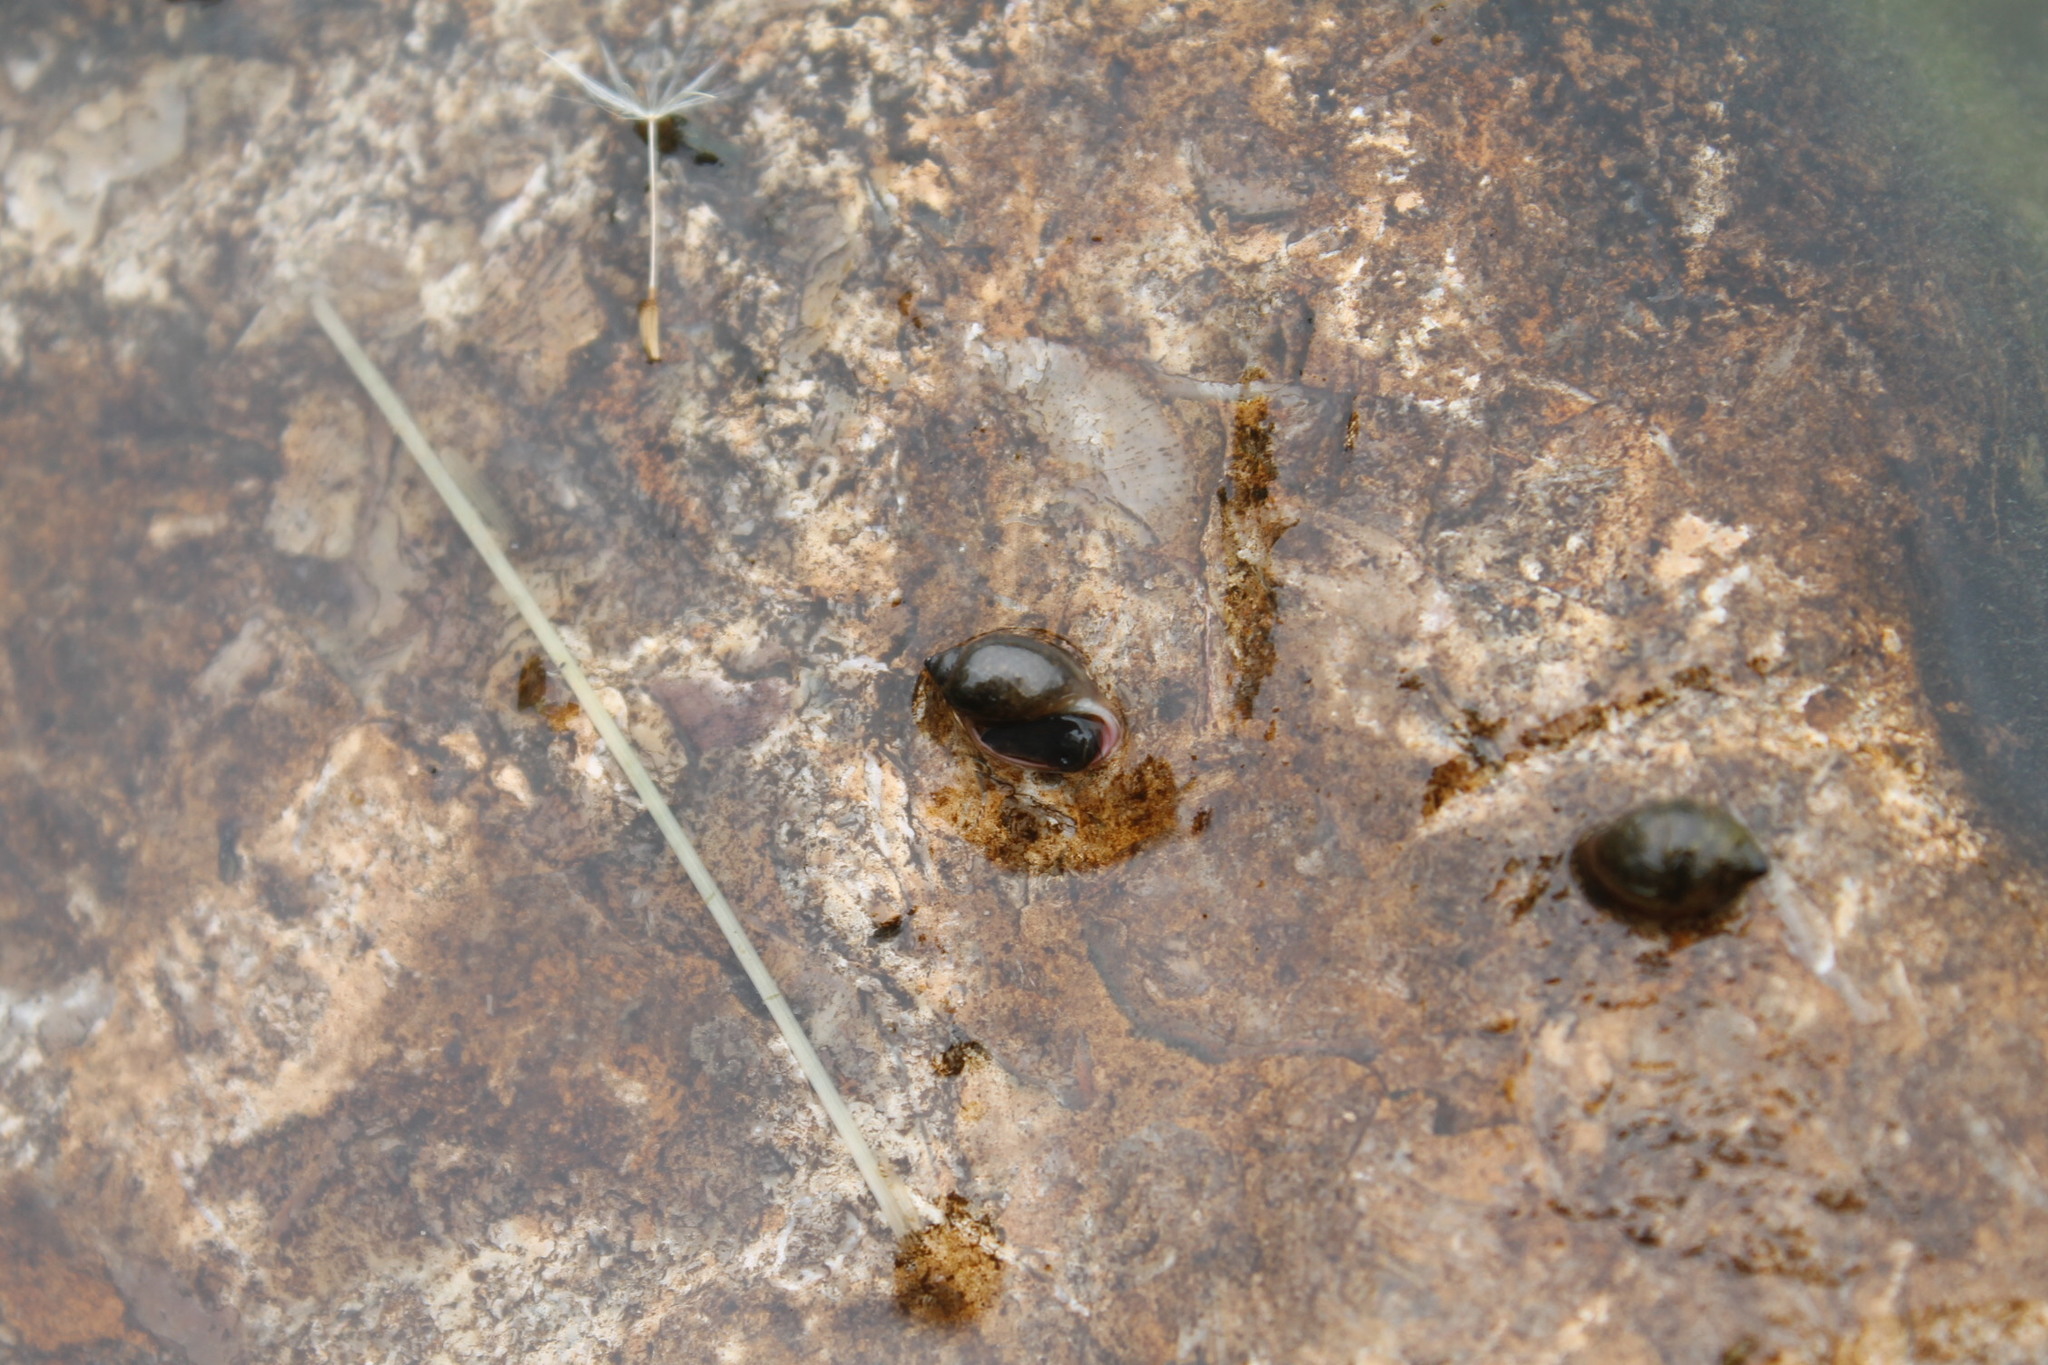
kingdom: Animalia
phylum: Mollusca
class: Gastropoda
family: Physidae
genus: Physella
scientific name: Physella acuta
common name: European physa
